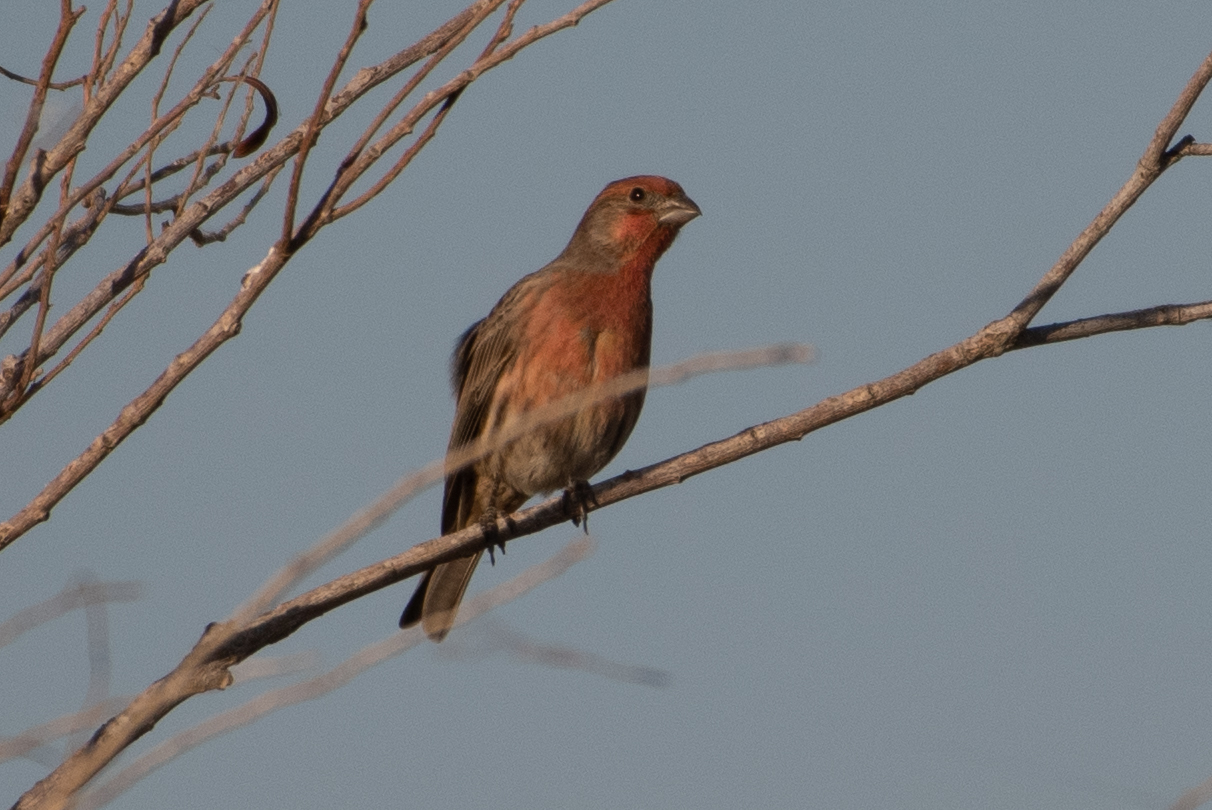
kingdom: Animalia
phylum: Chordata
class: Aves
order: Passeriformes
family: Fringillidae
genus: Haemorhous
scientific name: Haemorhous mexicanus
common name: House finch
